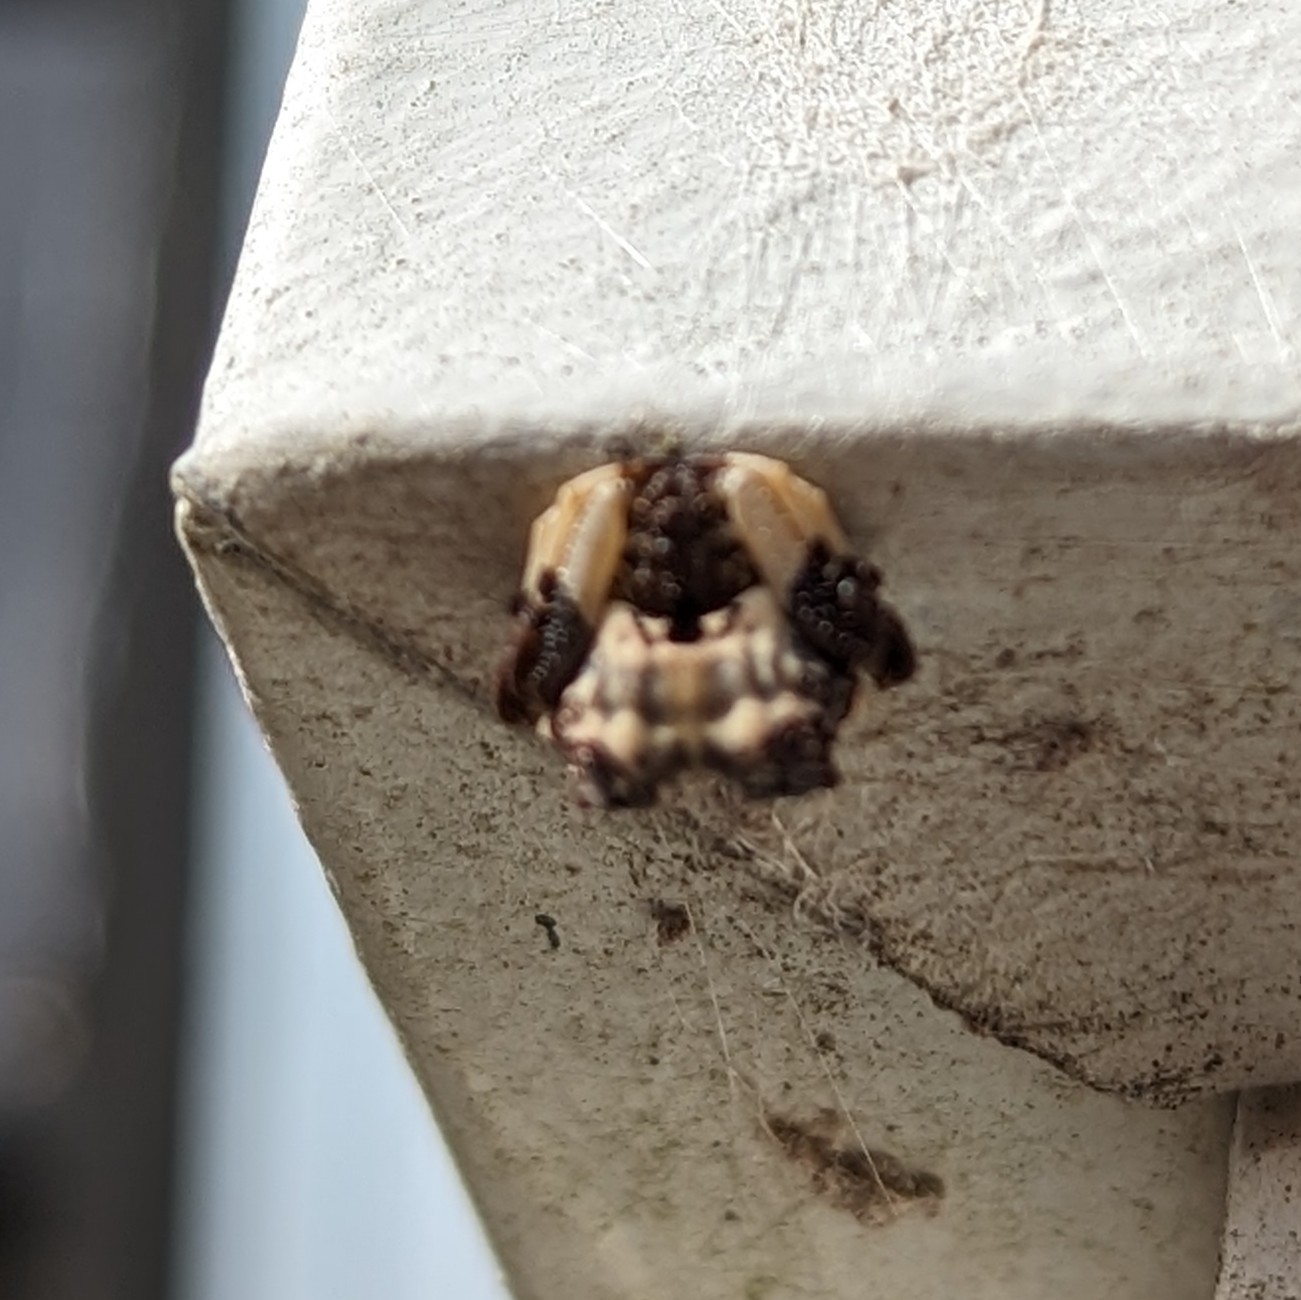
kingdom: Animalia
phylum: Arthropoda
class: Arachnida
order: Araneae
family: Araneidae
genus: Celaenia
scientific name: Celaenia excavata
